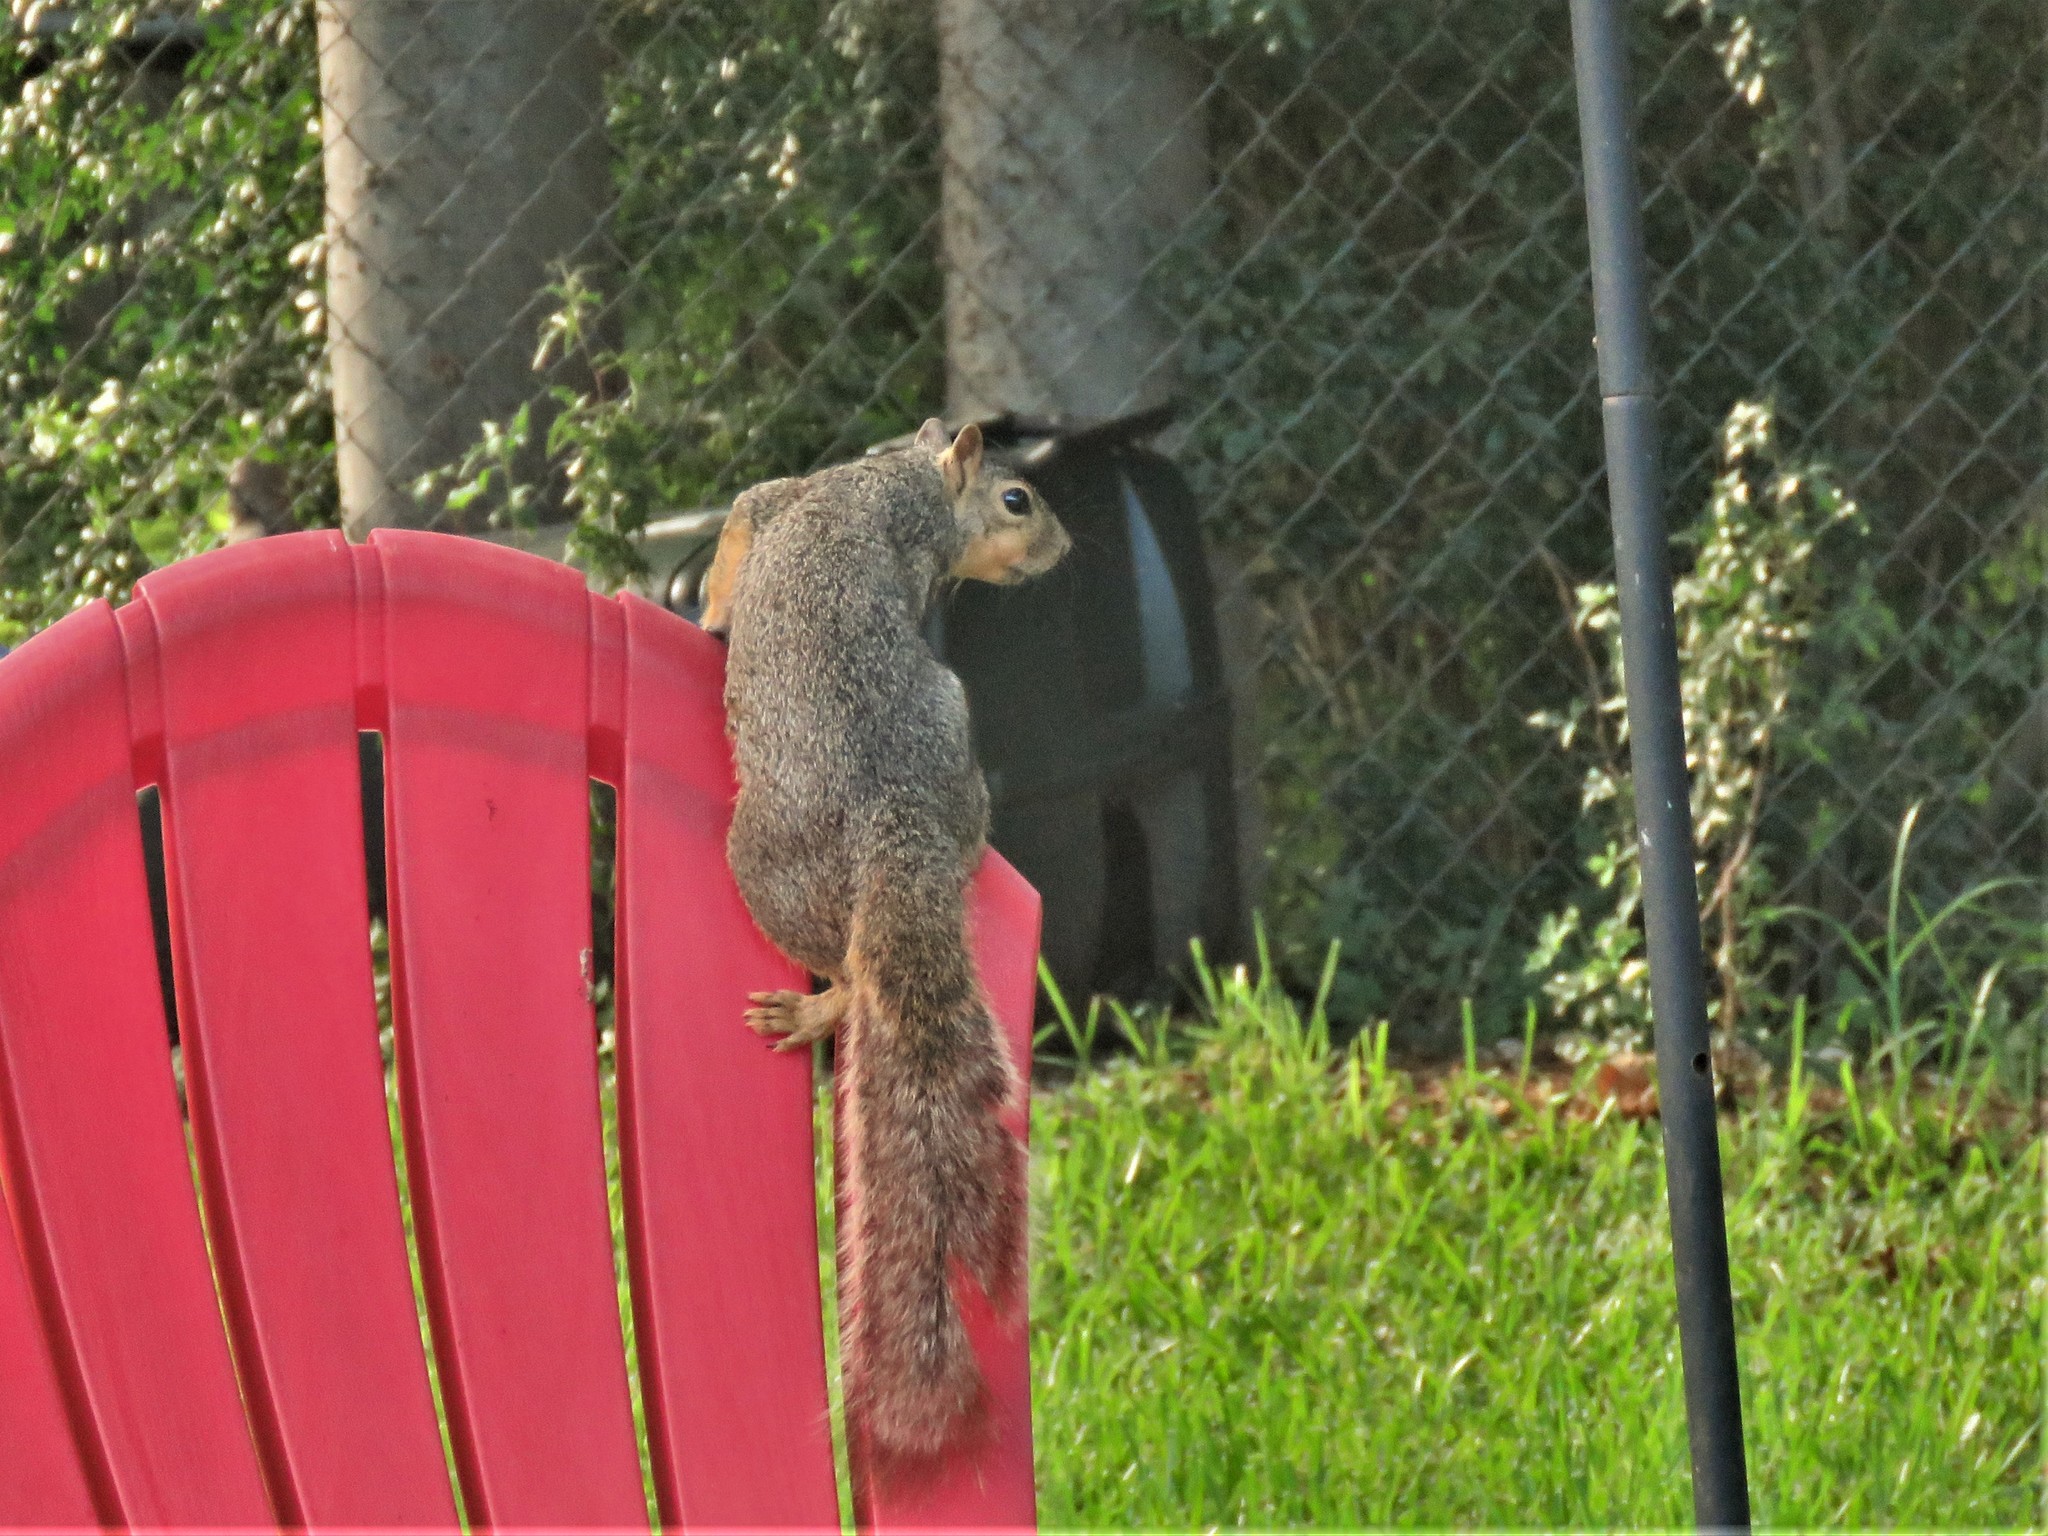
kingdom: Animalia
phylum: Chordata
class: Mammalia
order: Rodentia
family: Sciuridae
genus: Sciurus
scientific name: Sciurus niger
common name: Fox squirrel
